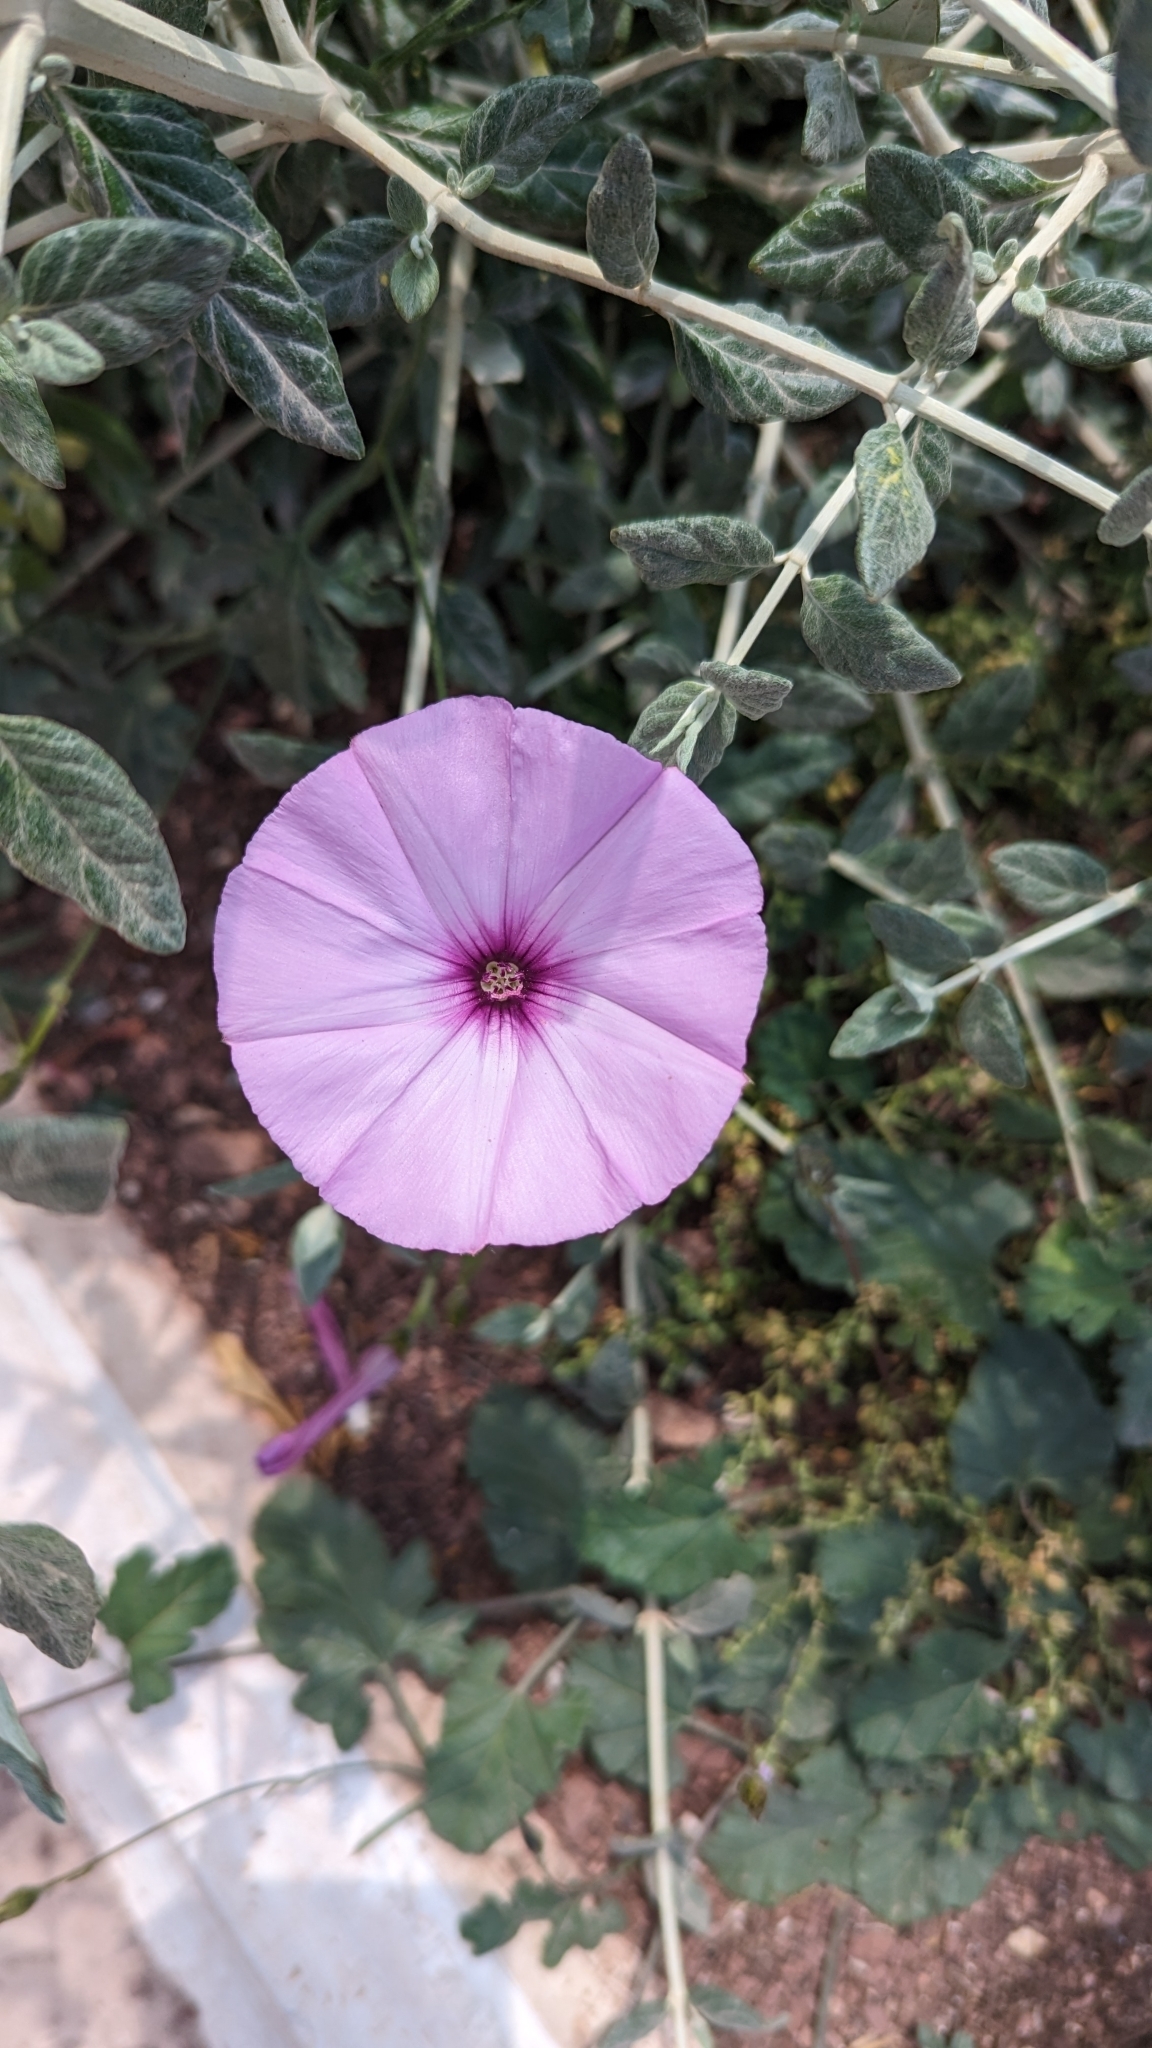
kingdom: Plantae
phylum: Tracheophyta
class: Magnoliopsida
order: Solanales
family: Convolvulaceae
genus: Convolvulus
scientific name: Convolvulus althaeoides
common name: Mallow bindweed
